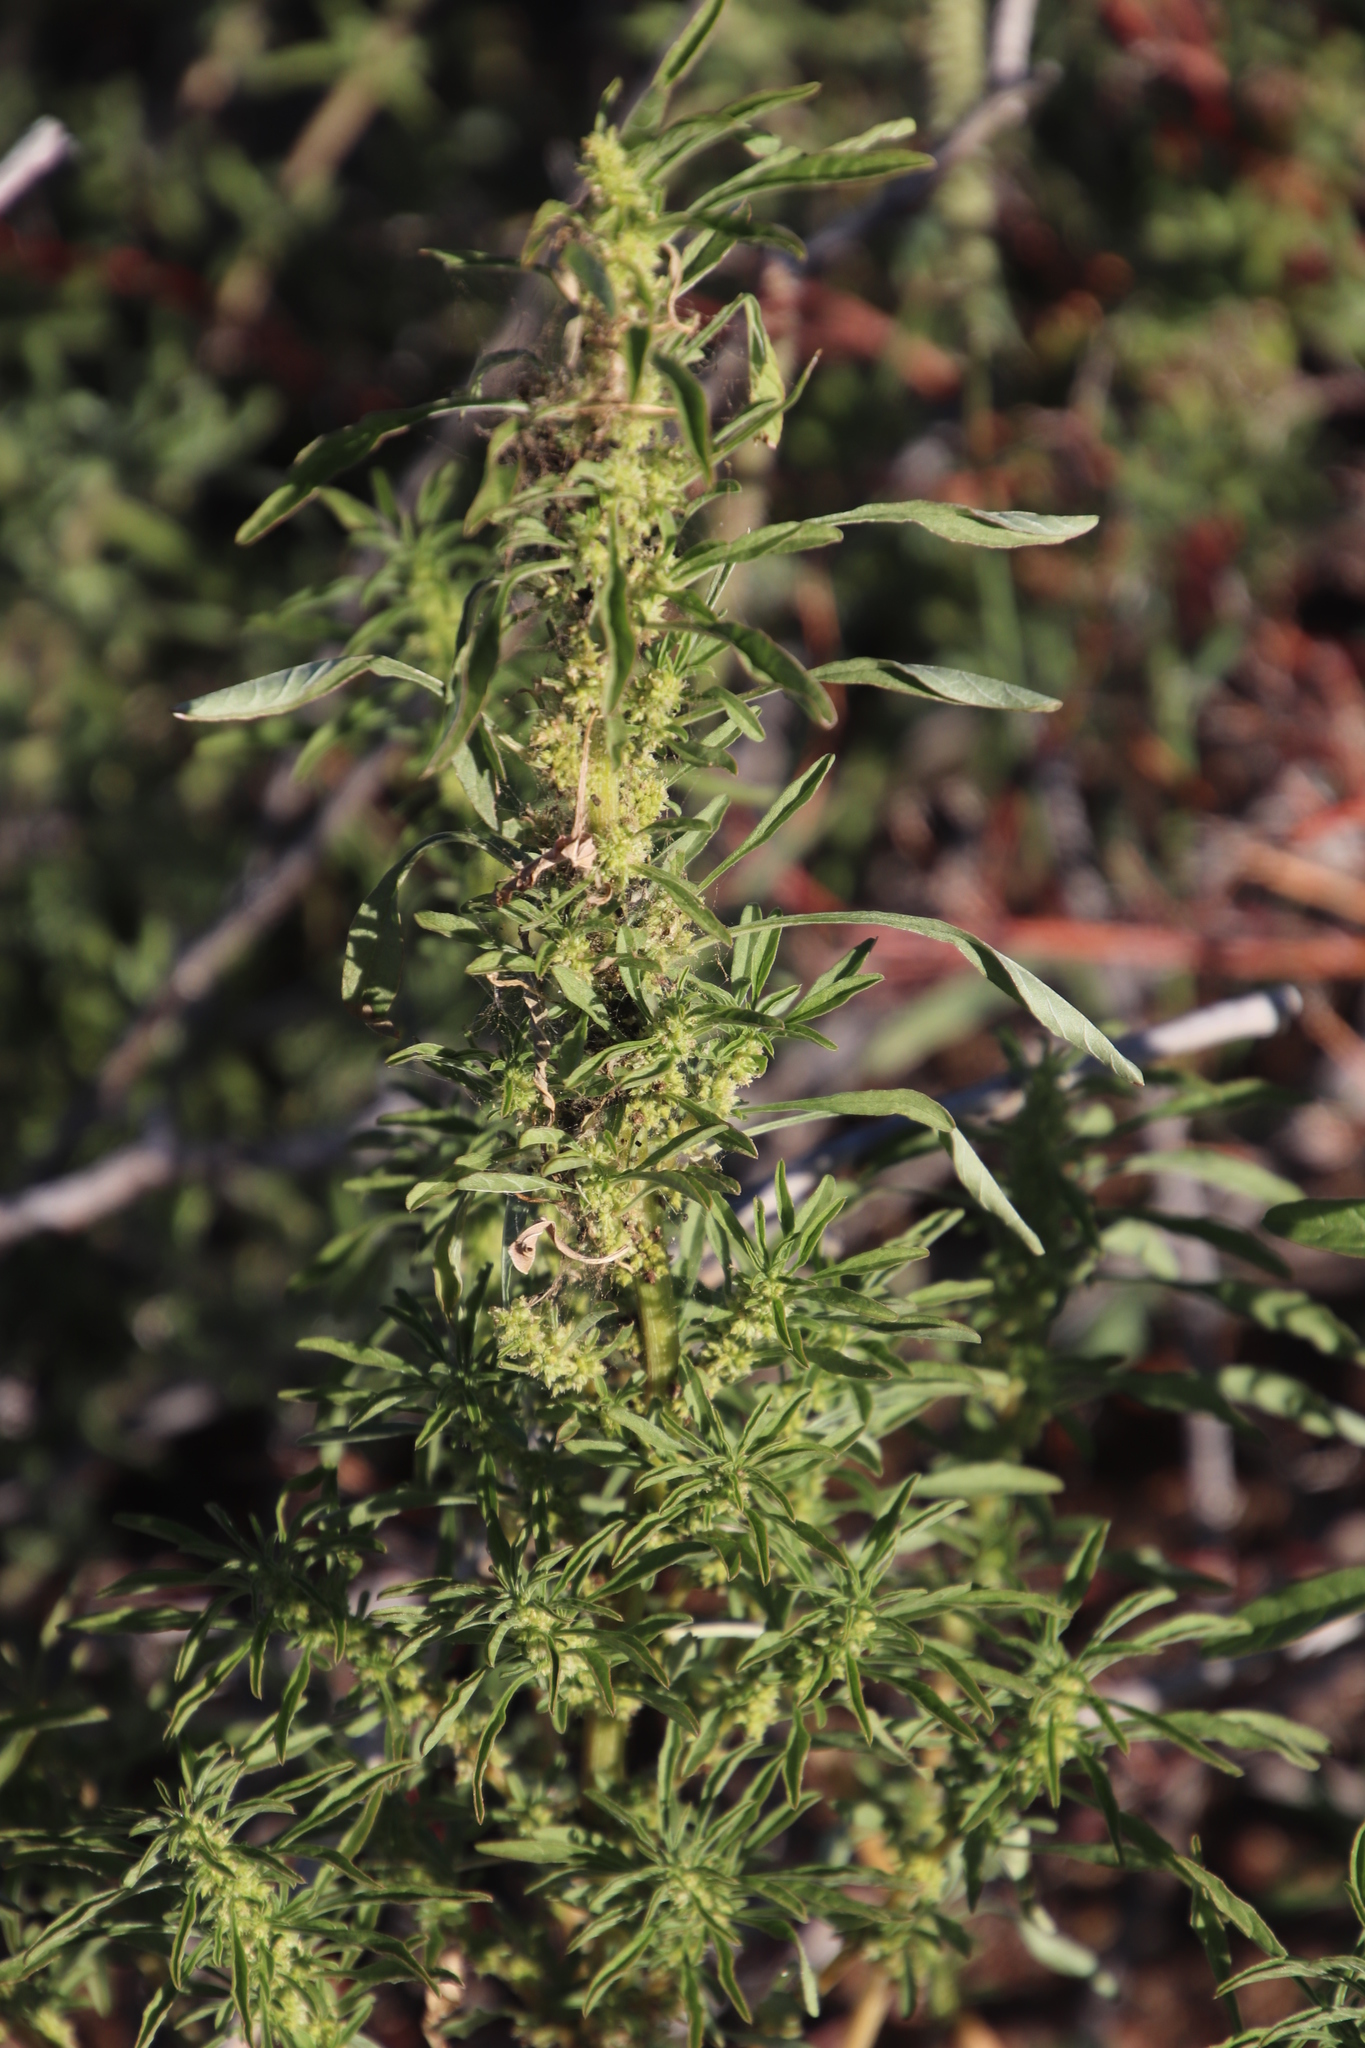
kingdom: Plantae
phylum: Tracheophyta
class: Magnoliopsida
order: Caryophyllales
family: Amaranthaceae
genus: Amaranthus
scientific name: Amaranthus thunbergii
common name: Thunberg's pigweed
